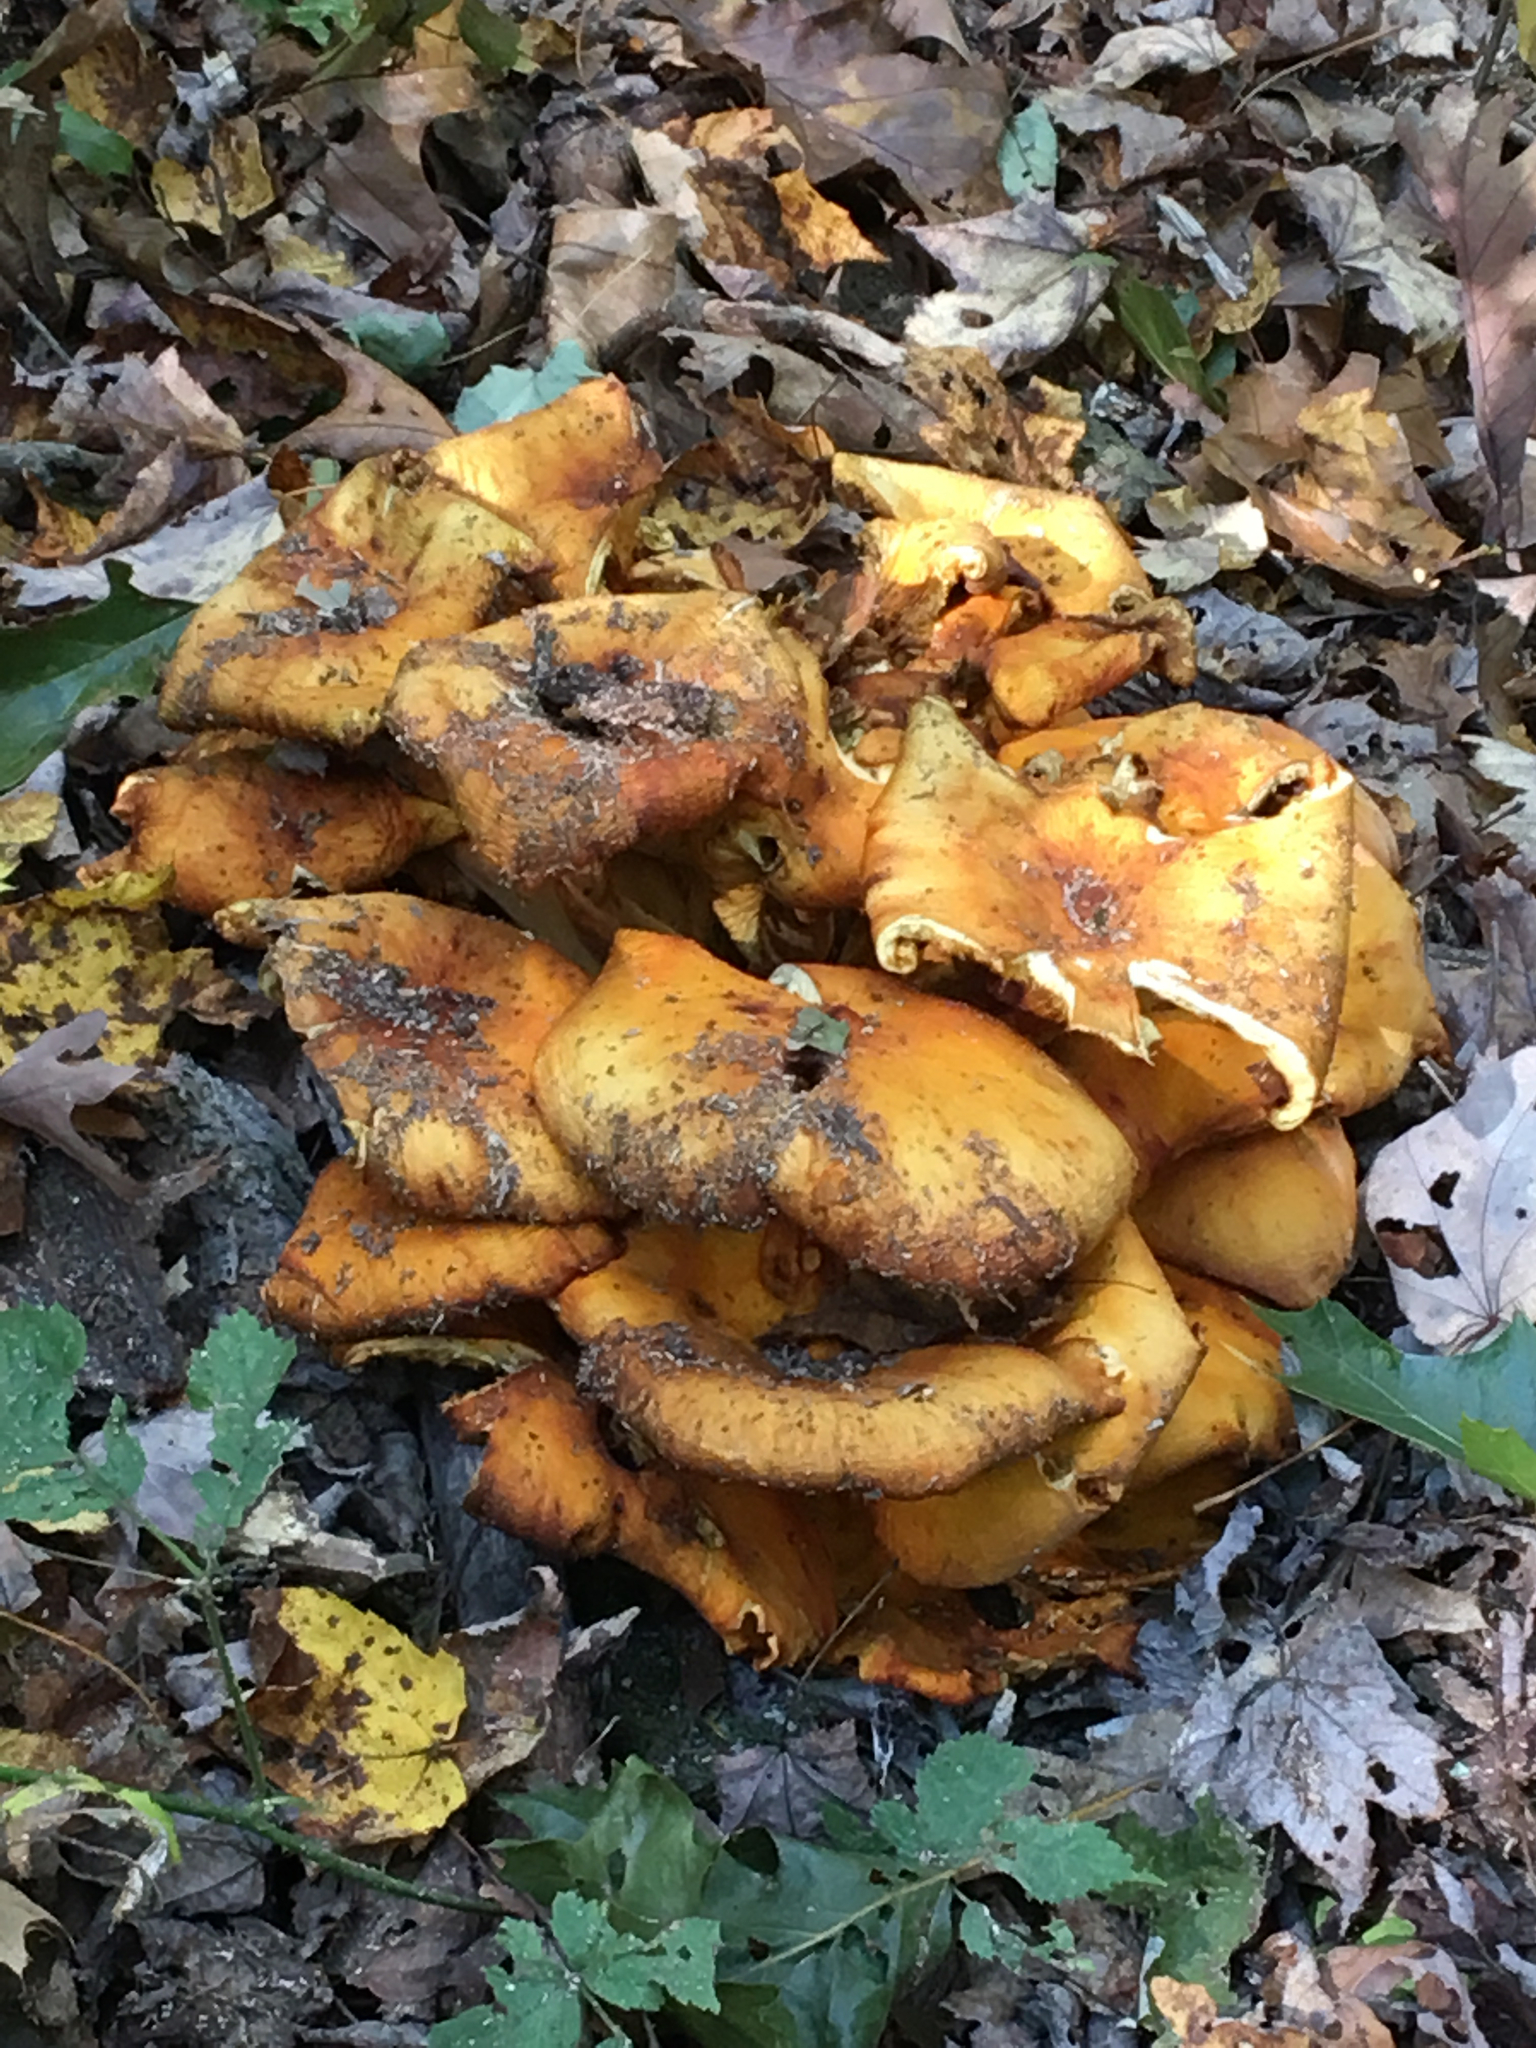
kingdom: Fungi
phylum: Basidiomycota
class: Agaricomycetes
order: Agaricales
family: Omphalotaceae
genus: Omphalotus
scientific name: Omphalotus illudens
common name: Jack o lantern
